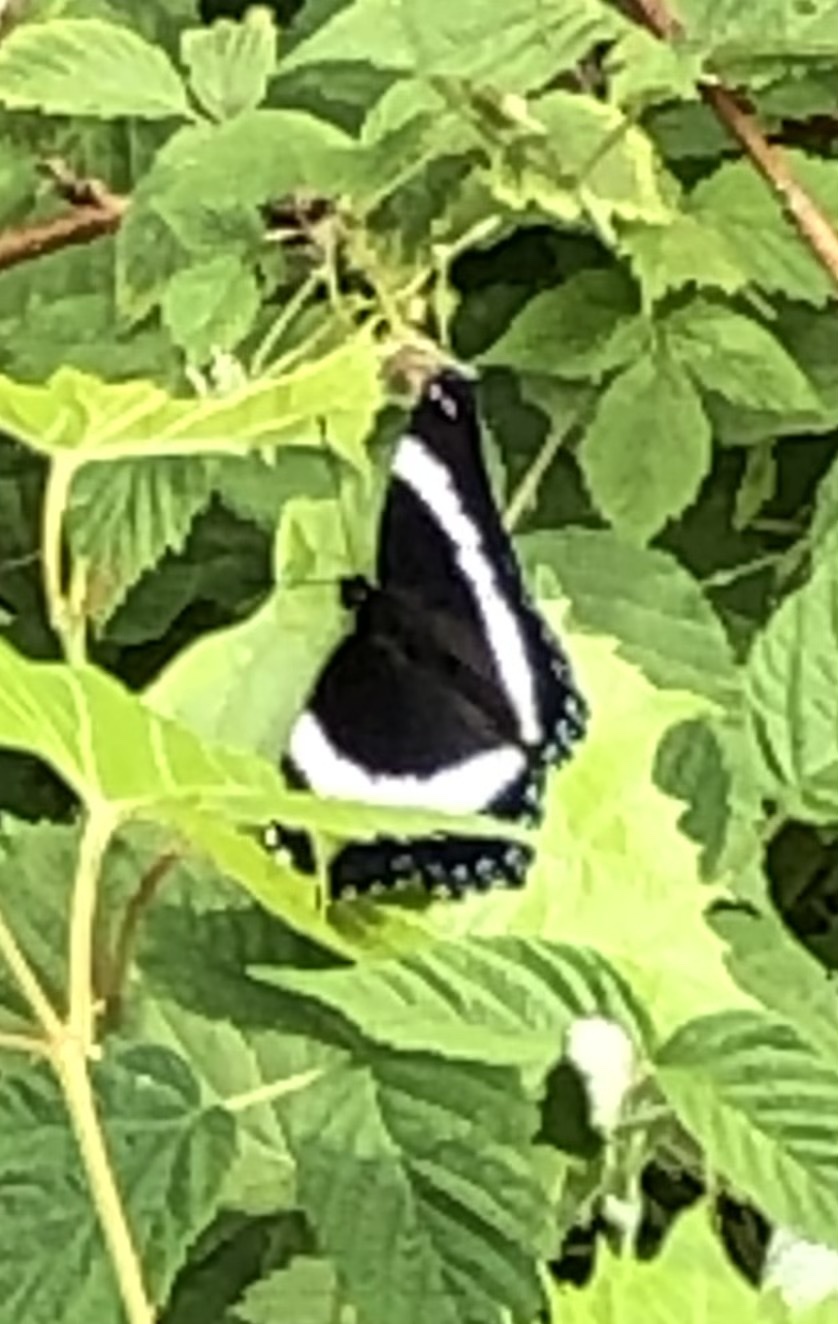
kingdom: Animalia
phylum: Arthropoda
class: Insecta
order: Lepidoptera
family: Nymphalidae
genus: Limenitis
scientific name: Limenitis arthemis
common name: Red-spotted admiral
